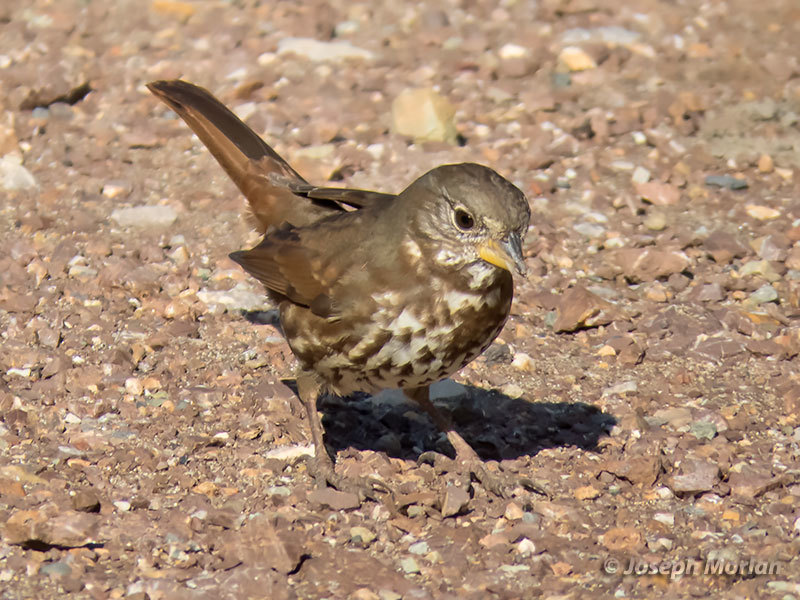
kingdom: Animalia
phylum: Chordata
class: Aves
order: Passeriformes
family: Passerellidae
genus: Passerella
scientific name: Passerella iliaca
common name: Fox sparrow
